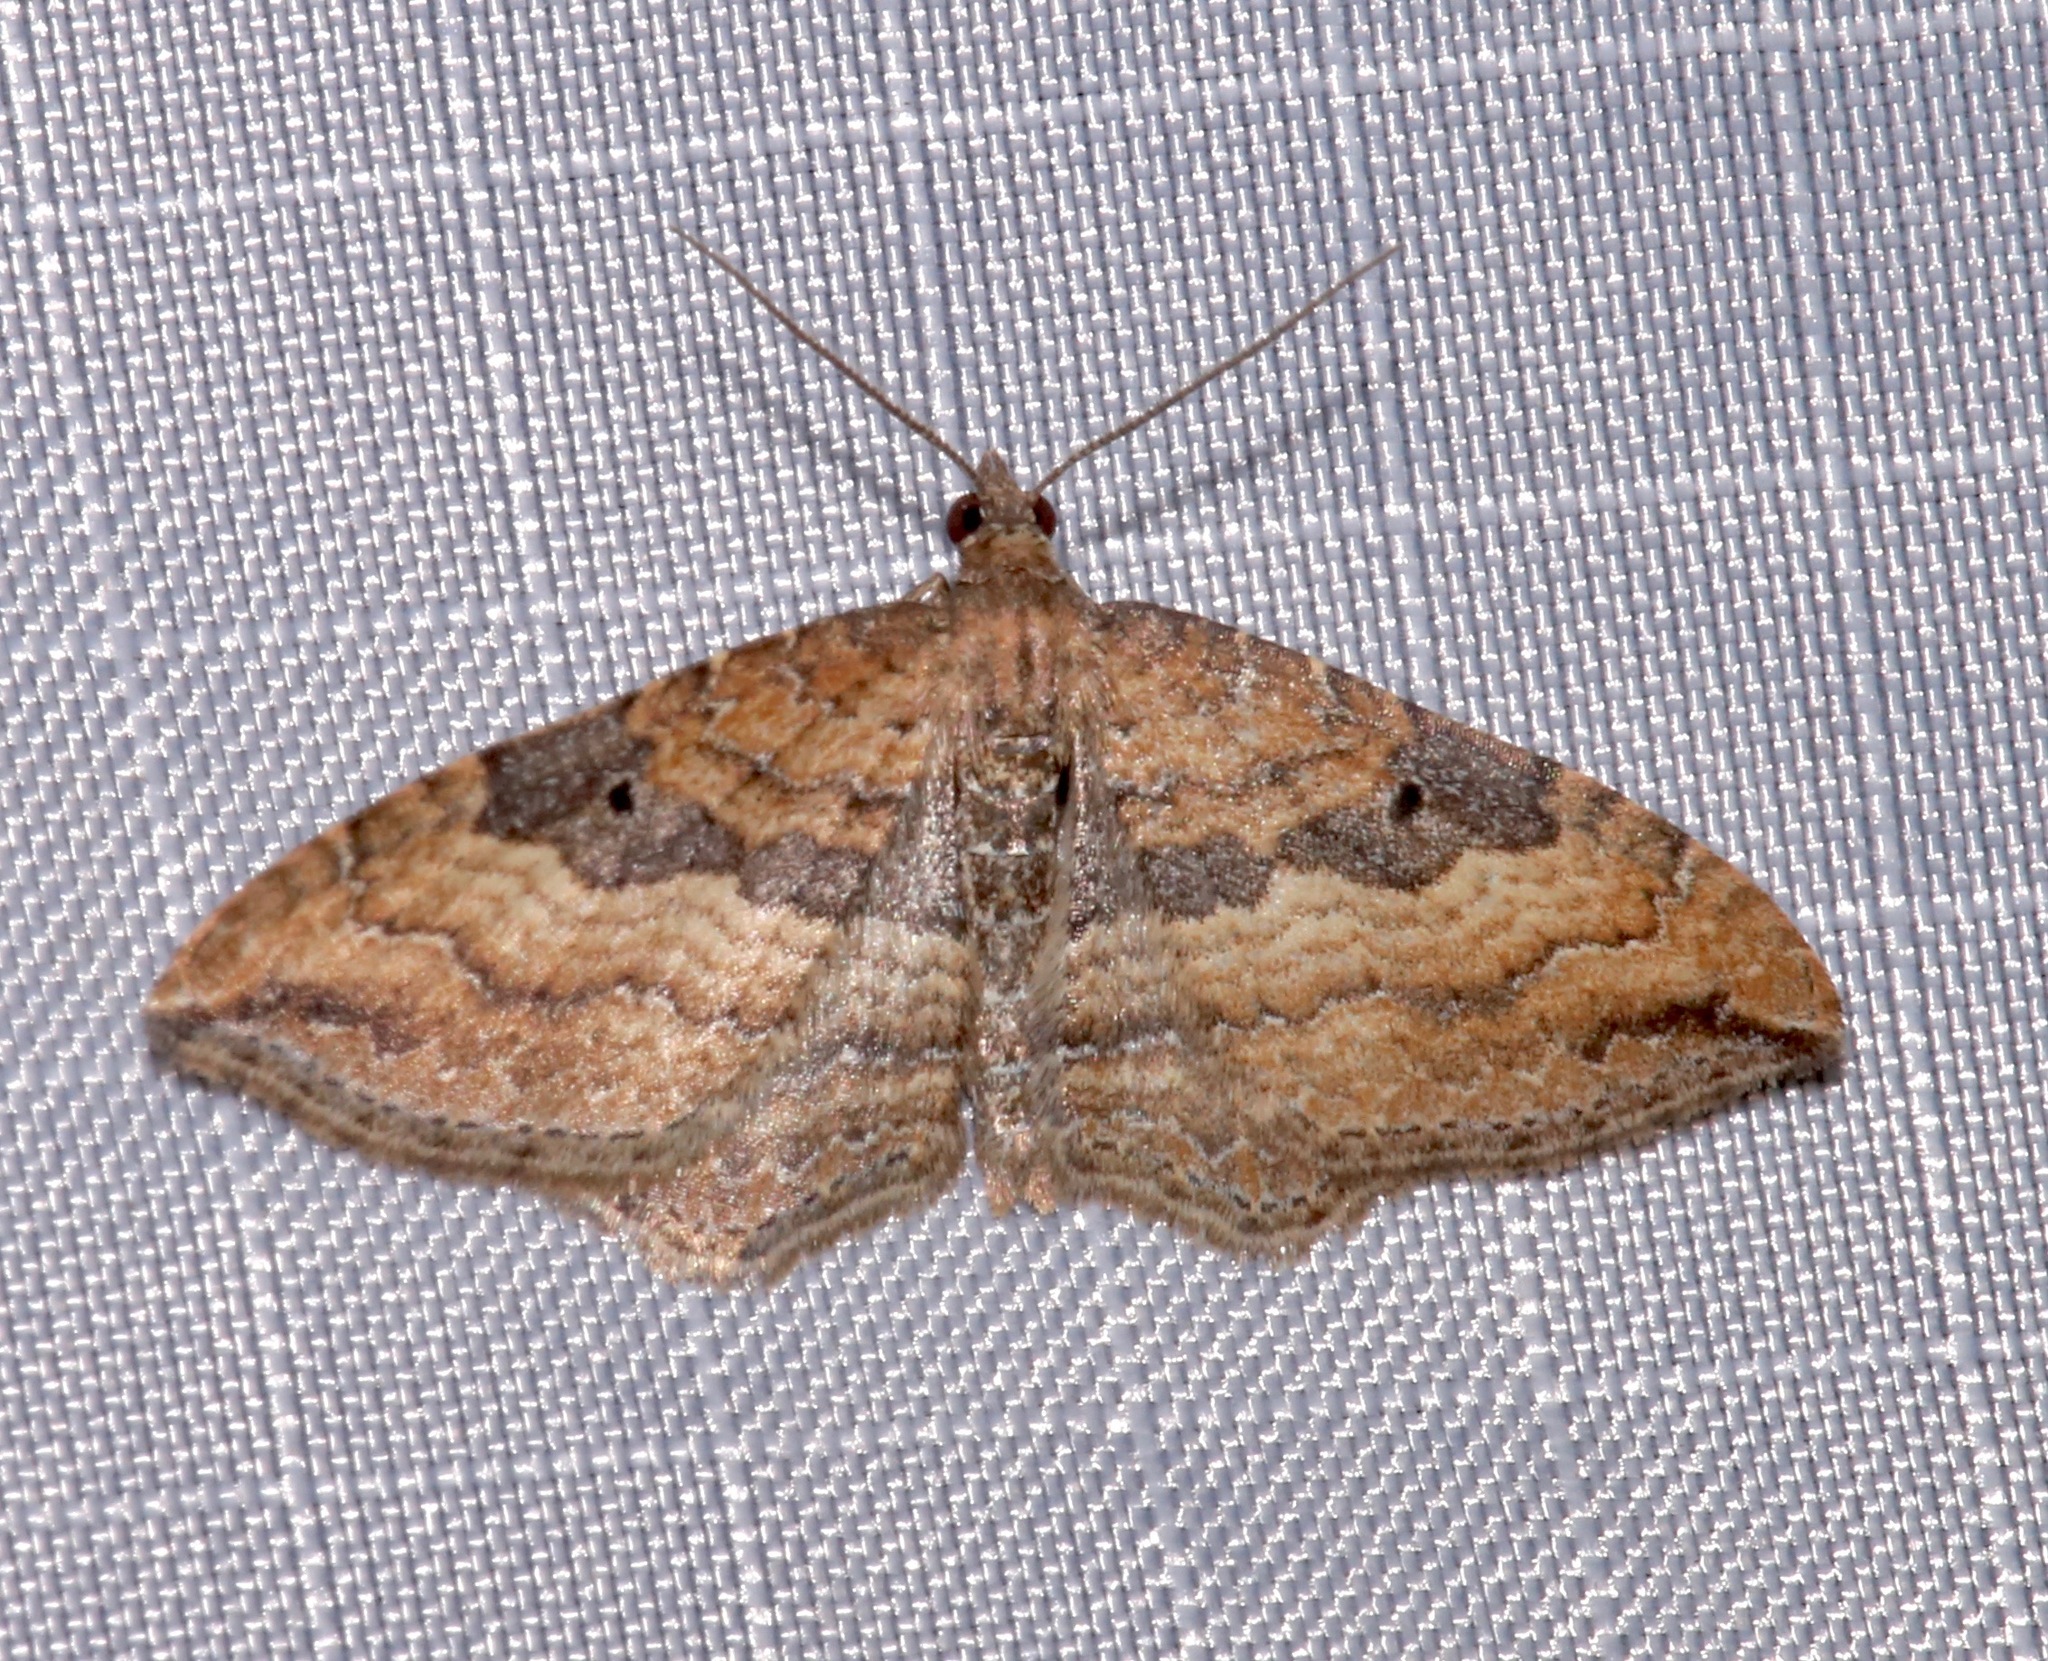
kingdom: Animalia
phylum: Arthropoda
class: Insecta
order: Lepidoptera
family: Geometridae
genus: Orthonama
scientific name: Orthonama obstipata
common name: The gem
